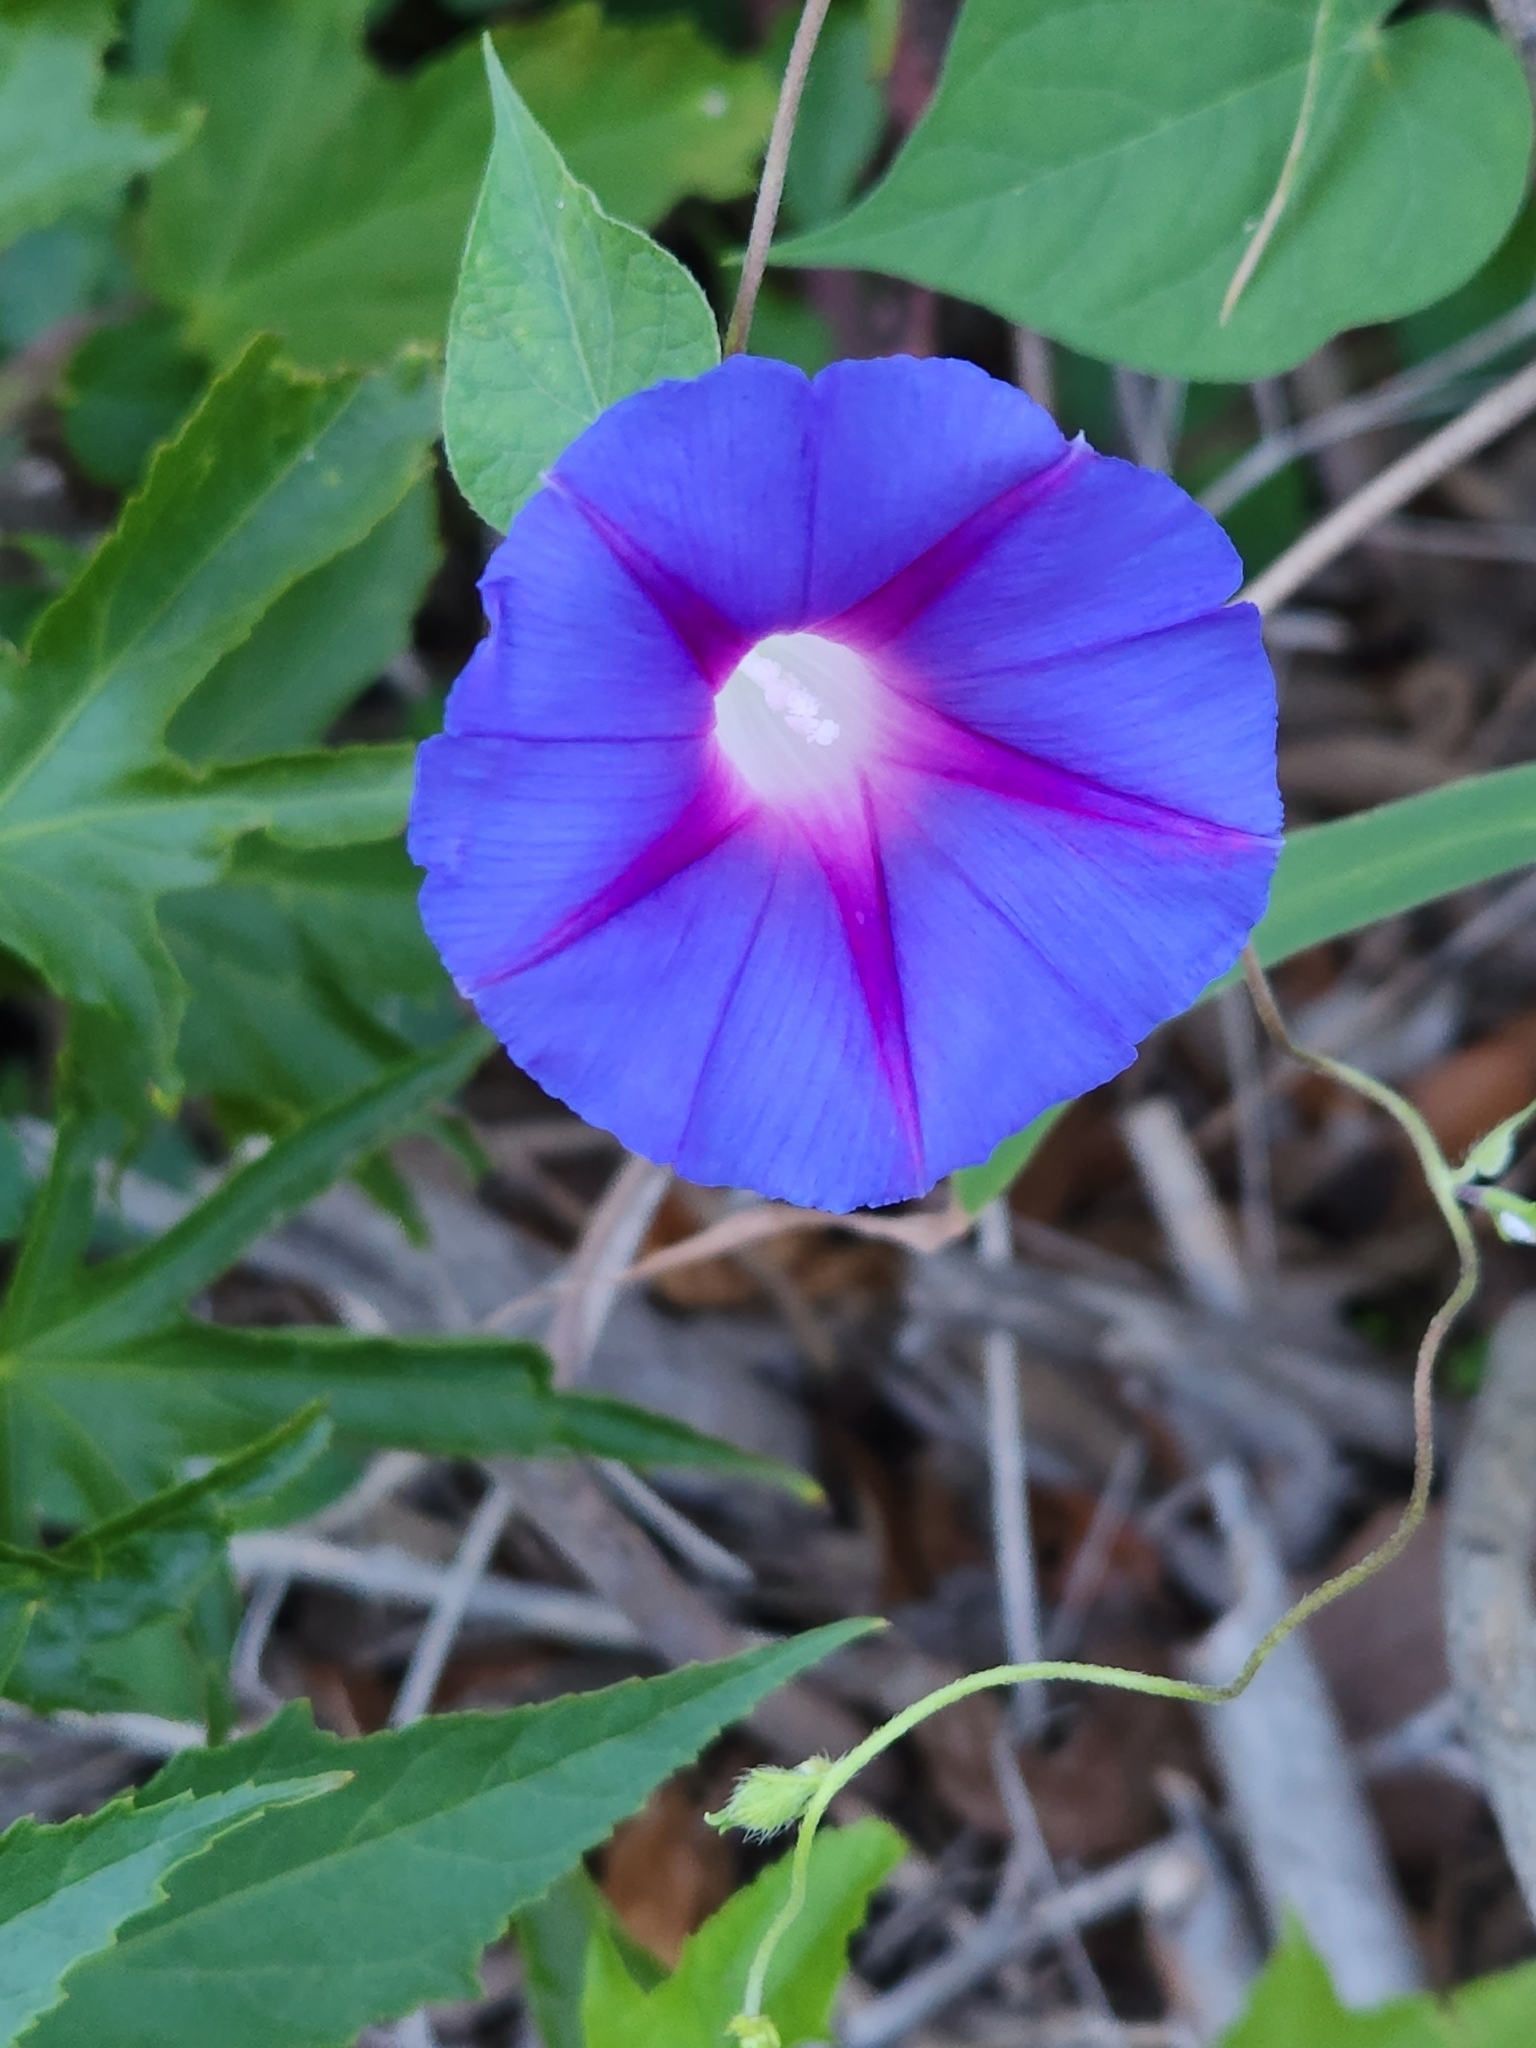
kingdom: Plantae
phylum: Tracheophyta
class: Magnoliopsida
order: Solanales
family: Convolvulaceae
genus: Ipomoea
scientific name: Ipomoea purpurea
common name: Common morning-glory
